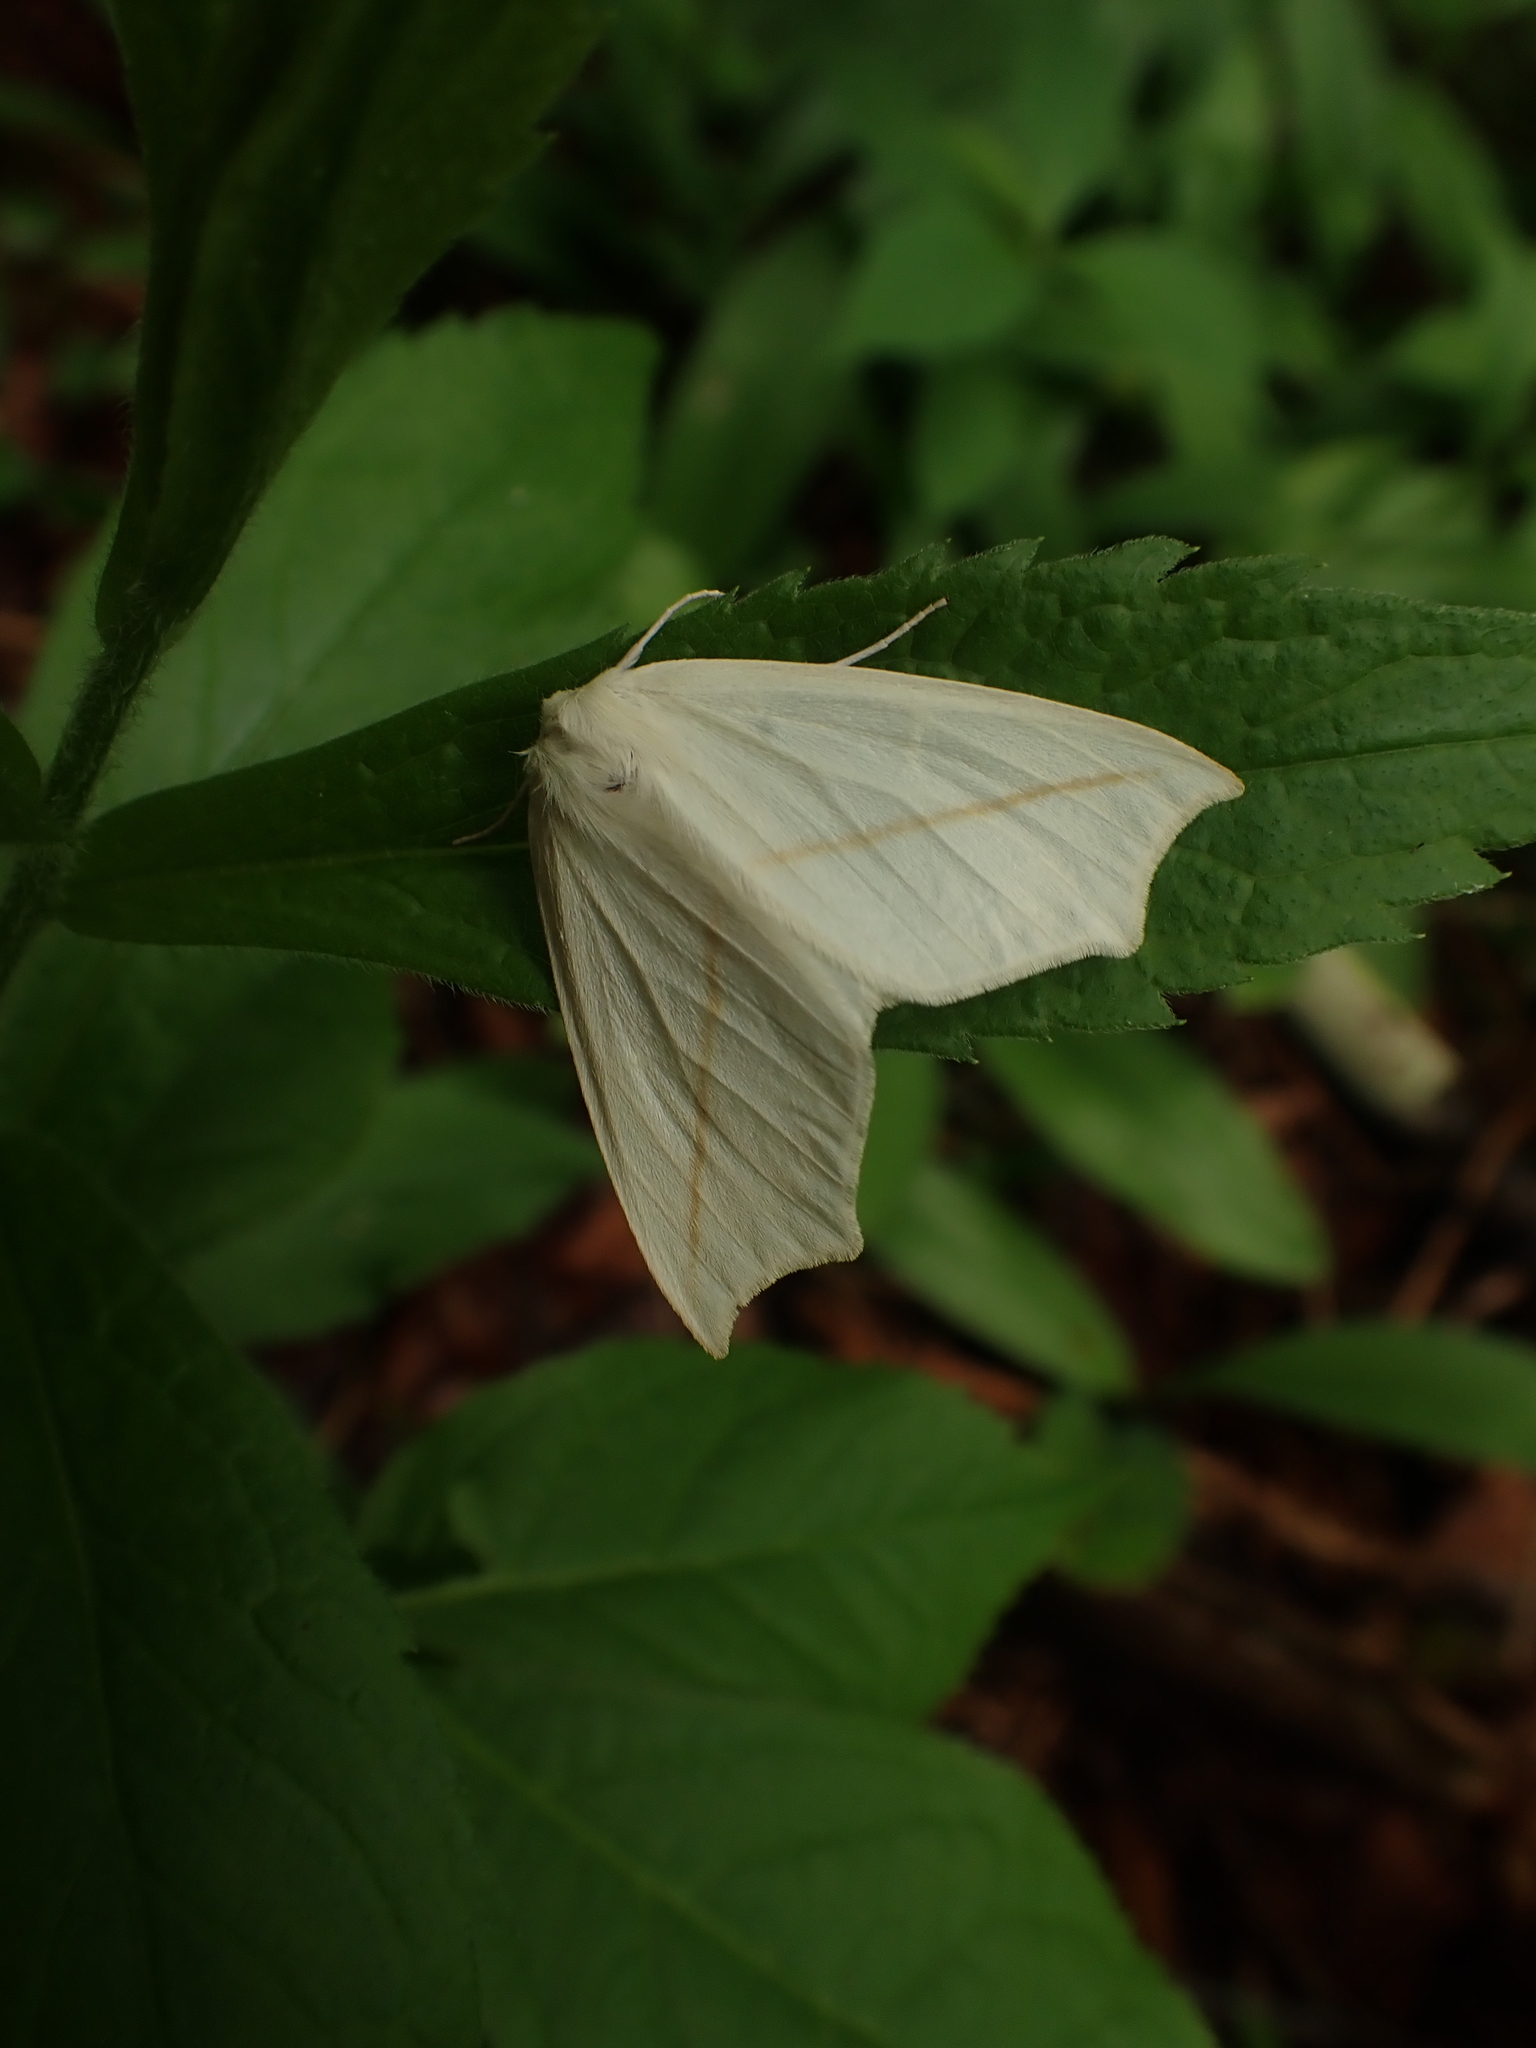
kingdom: Animalia
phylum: Arthropoda
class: Insecta
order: Lepidoptera
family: Geometridae
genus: Tetracis
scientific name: Tetracis cachexiata
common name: White slant-line
